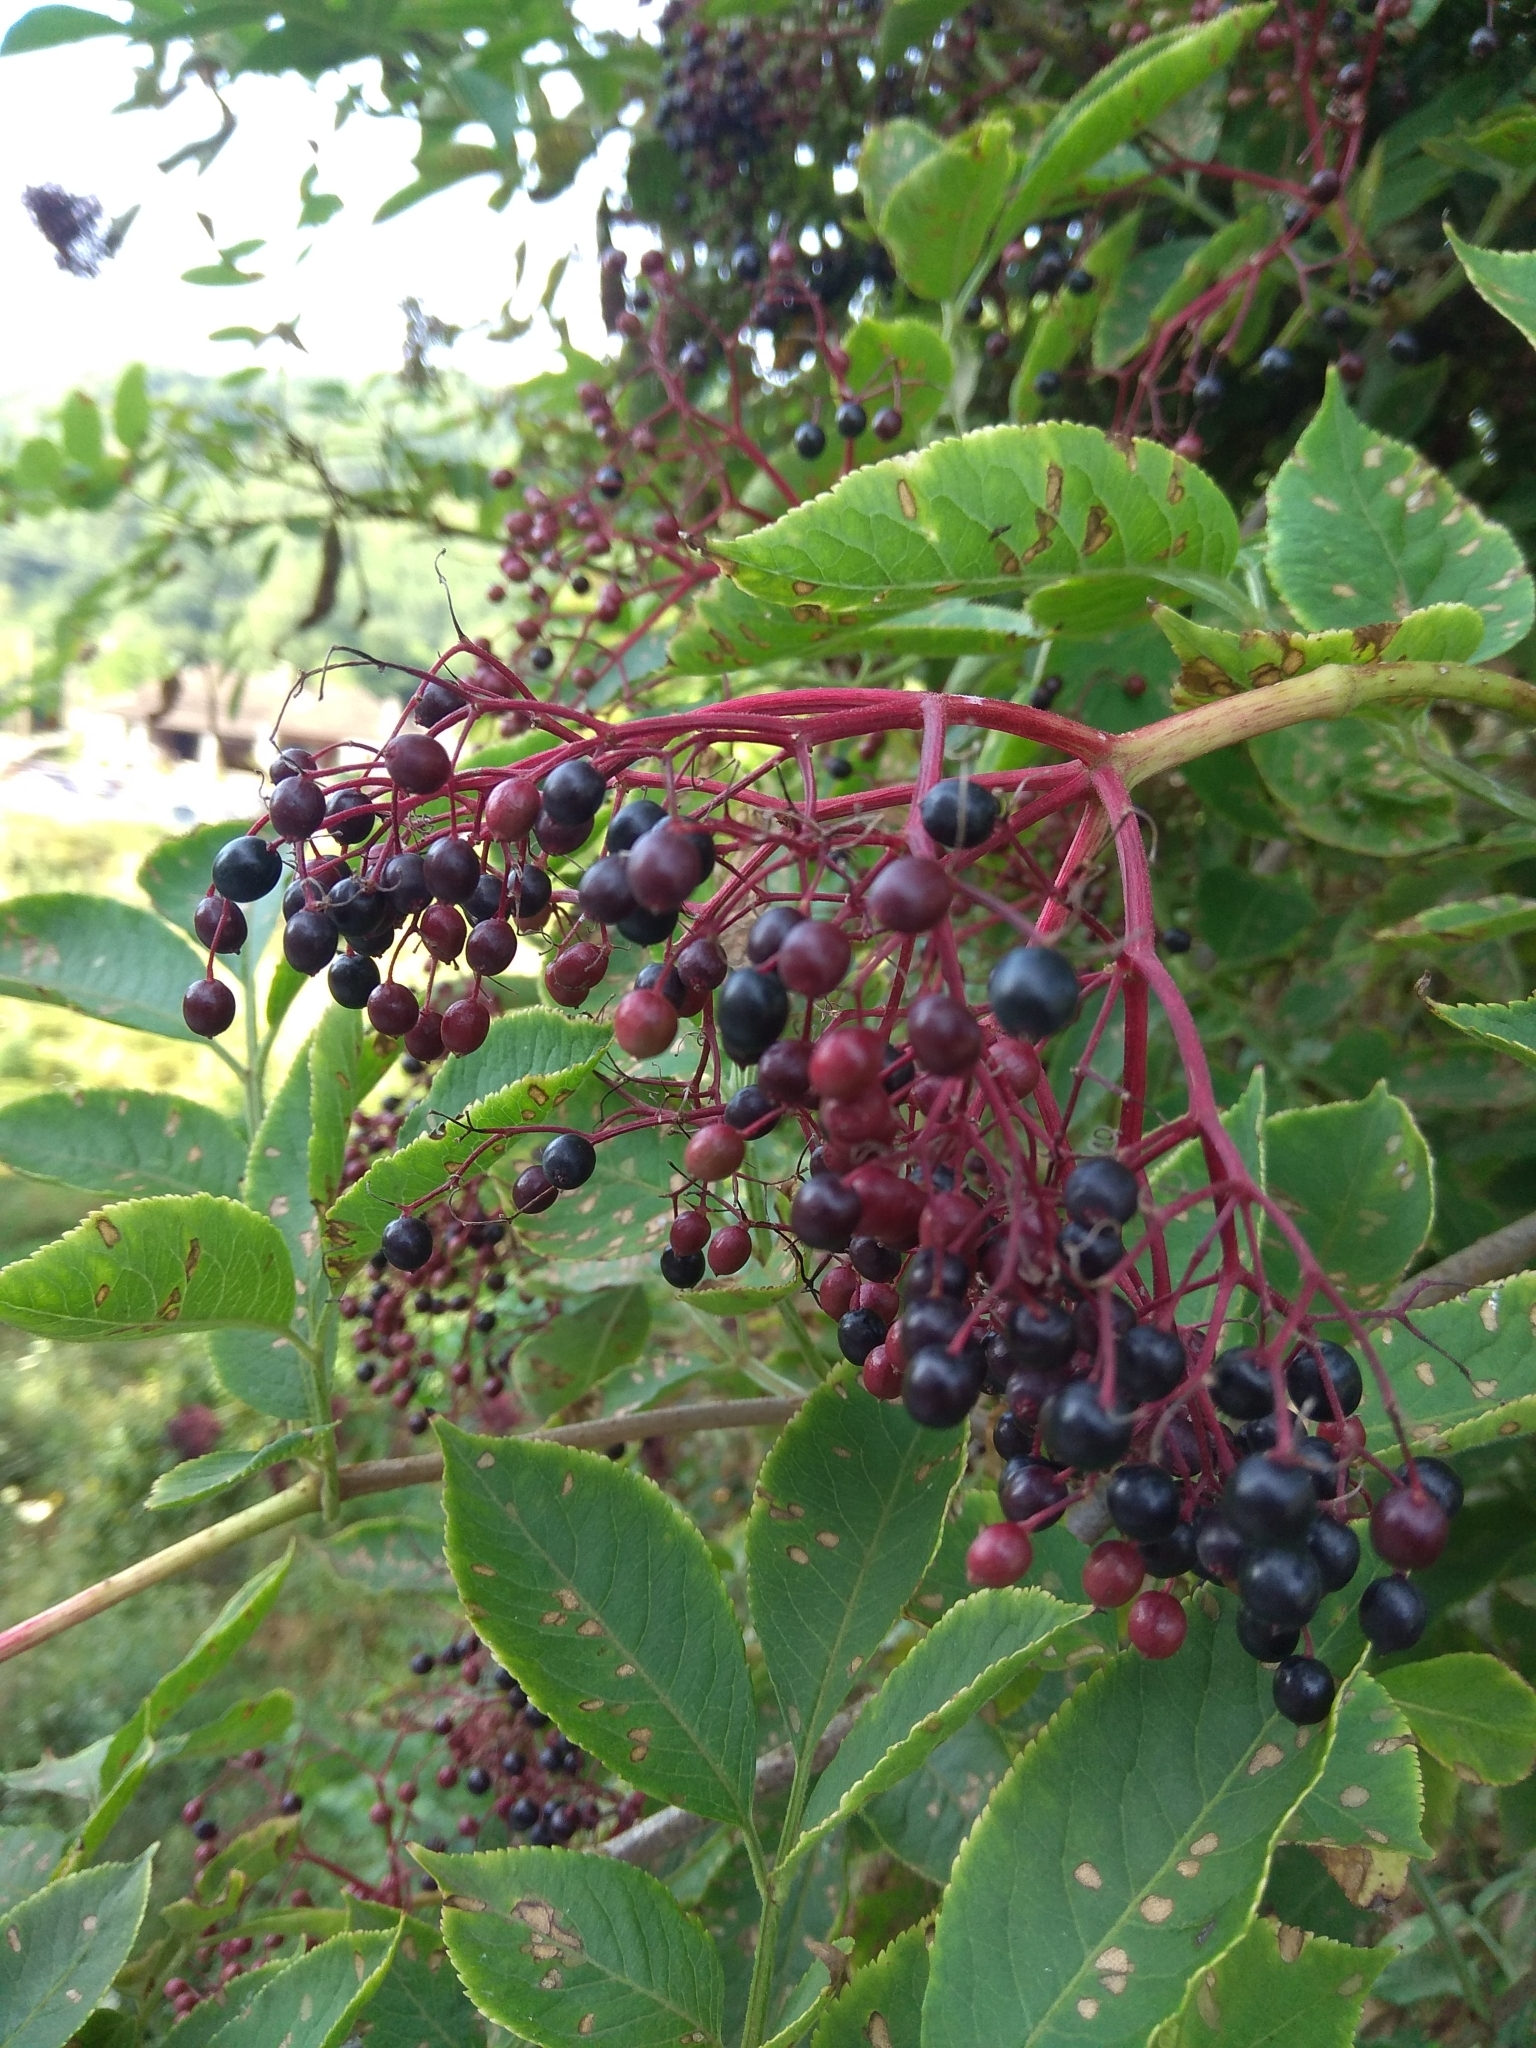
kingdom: Plantae
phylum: Tracheophyta
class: Magnoliopsida
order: Dipsacales
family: Viburnaceae
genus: Sambucus
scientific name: Sambucus nigra
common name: Elder
